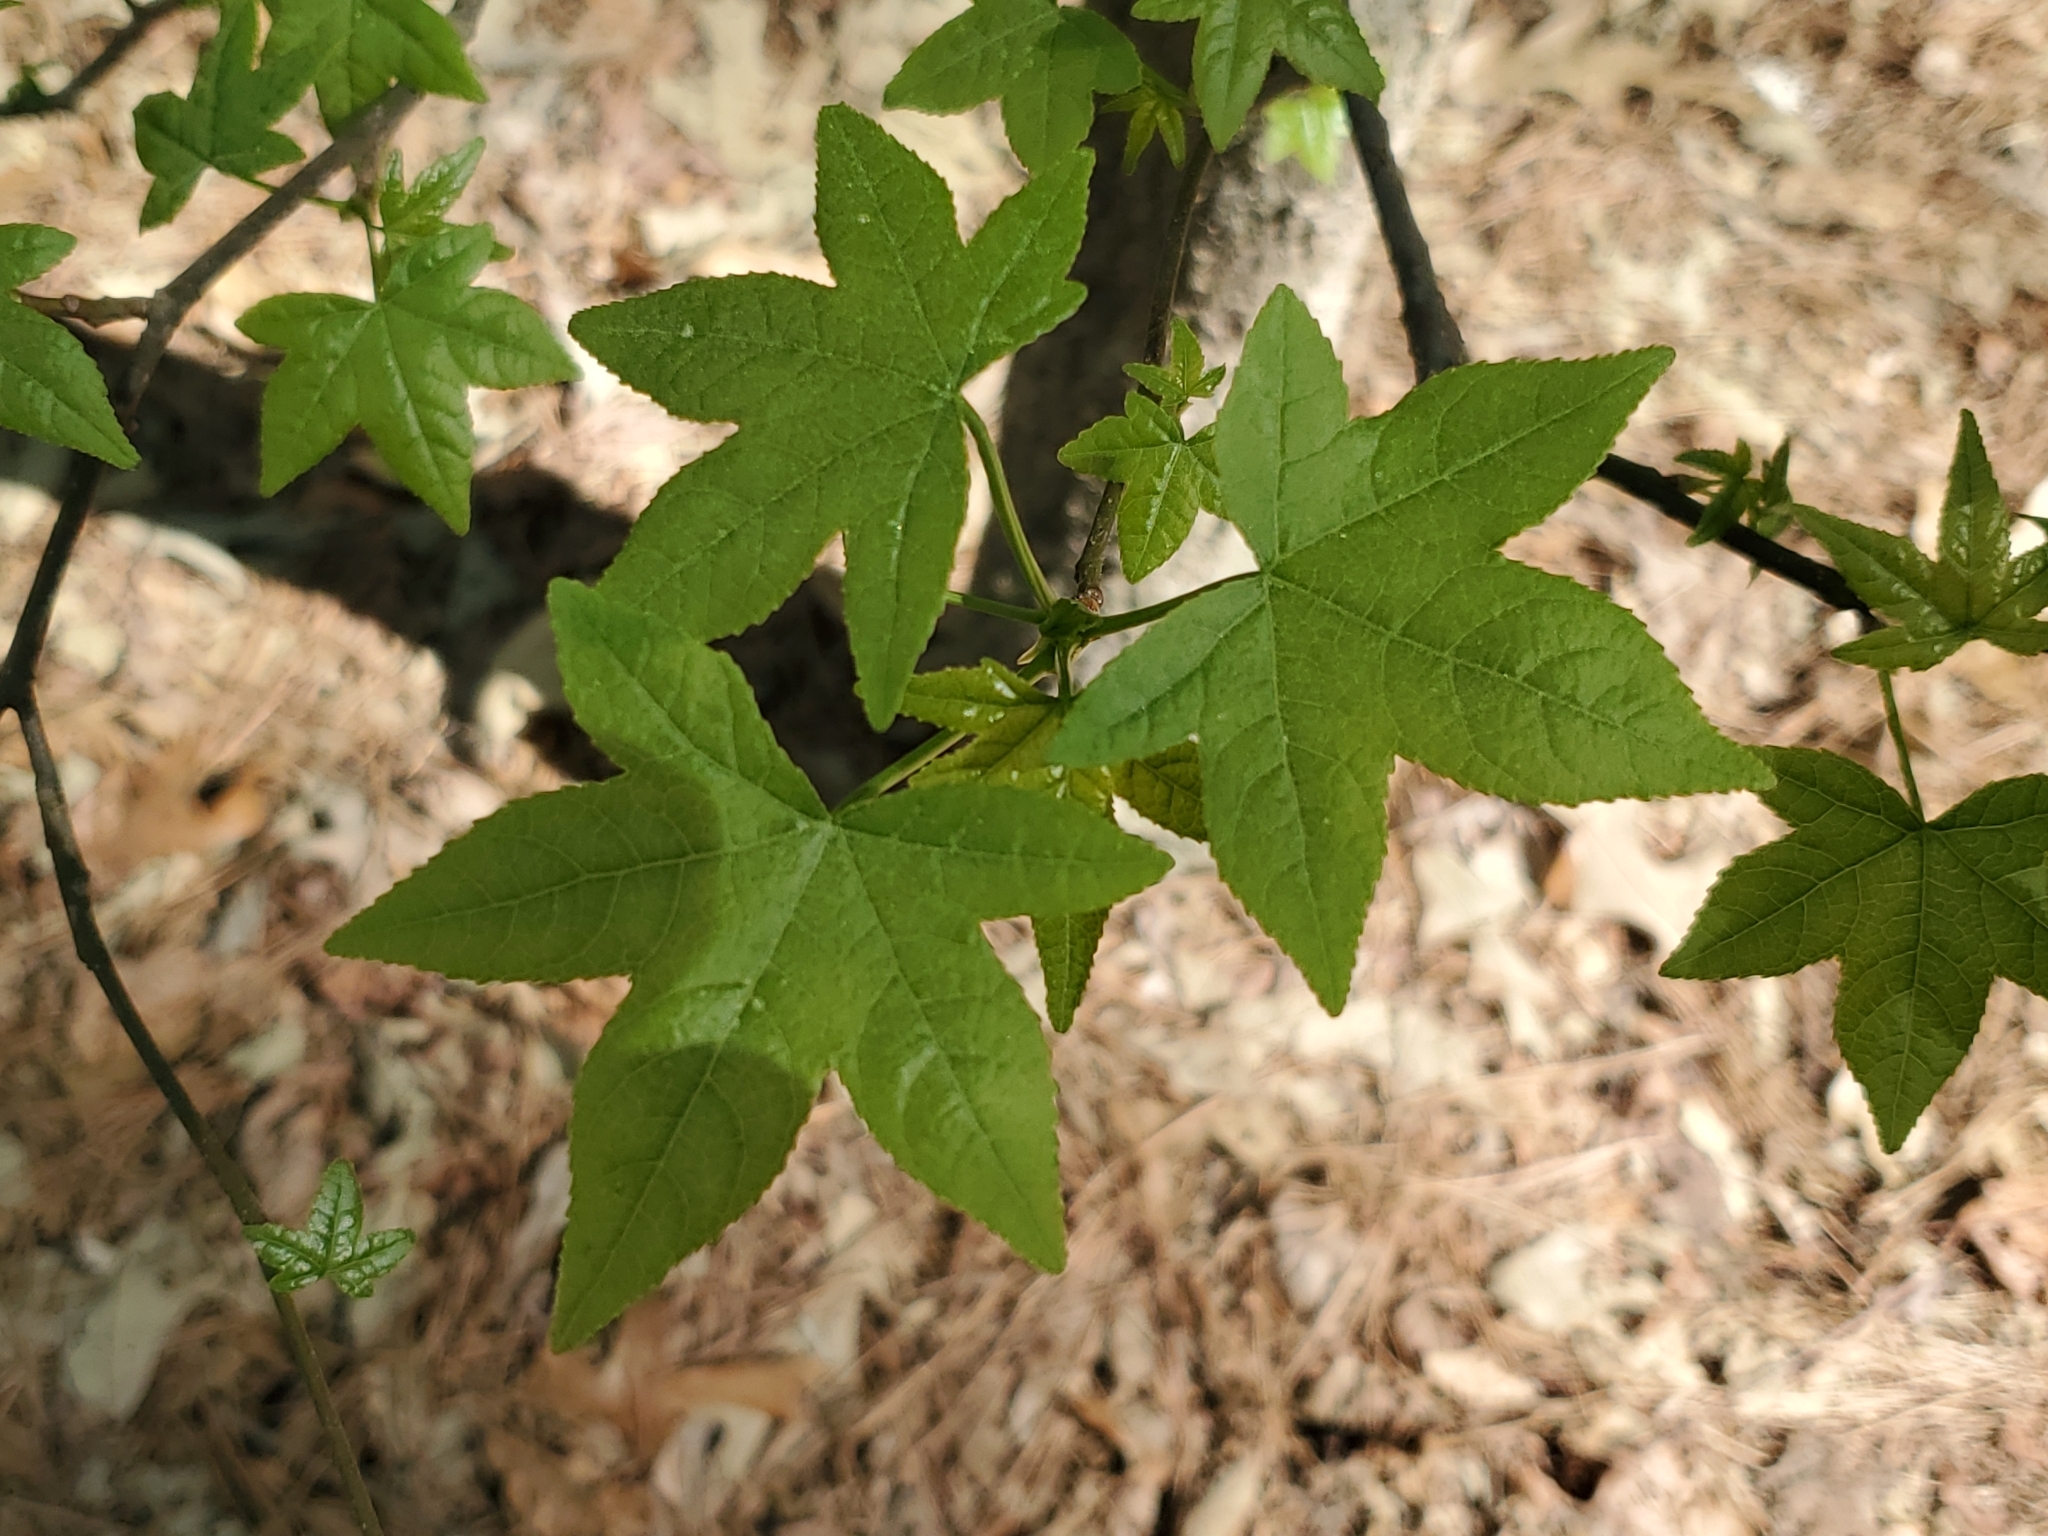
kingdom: Plantae
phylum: Tracheophyta
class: Magnoliopsida
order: Saxifragales
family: Altingiaceae
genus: Liquidambar
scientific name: Liquidambar styraciflua
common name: Sweet gum
